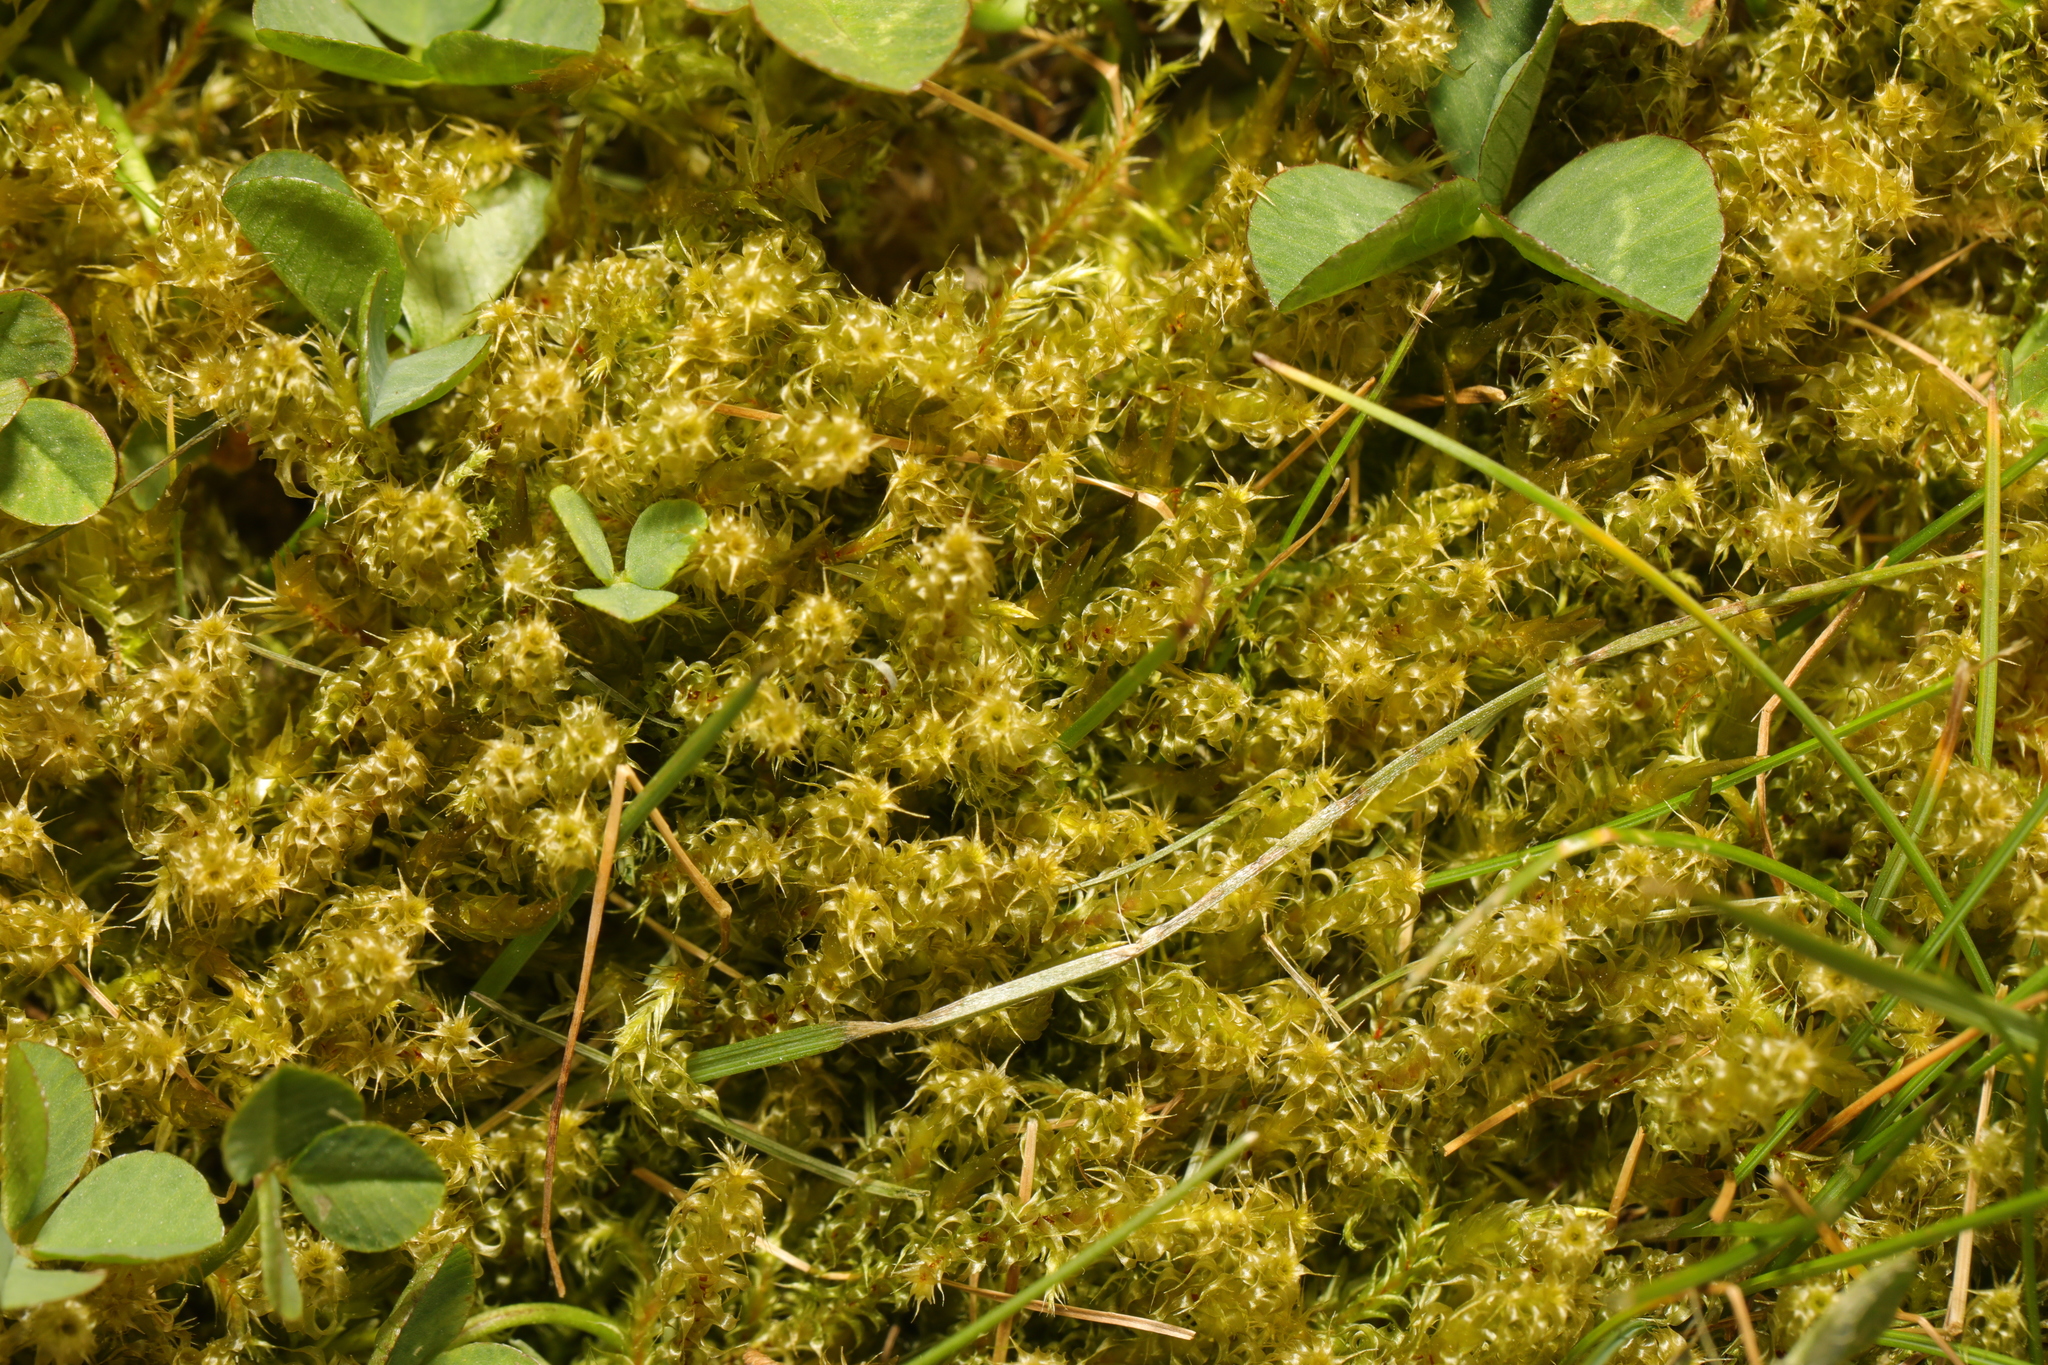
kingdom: Plantae
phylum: Bryophyta
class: Bryopsida
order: Hypnales
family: Hylocomiaceae
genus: Rhytidiadelphus
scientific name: Rhytidiadelphus squarrosus
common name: Springy turf-moss
